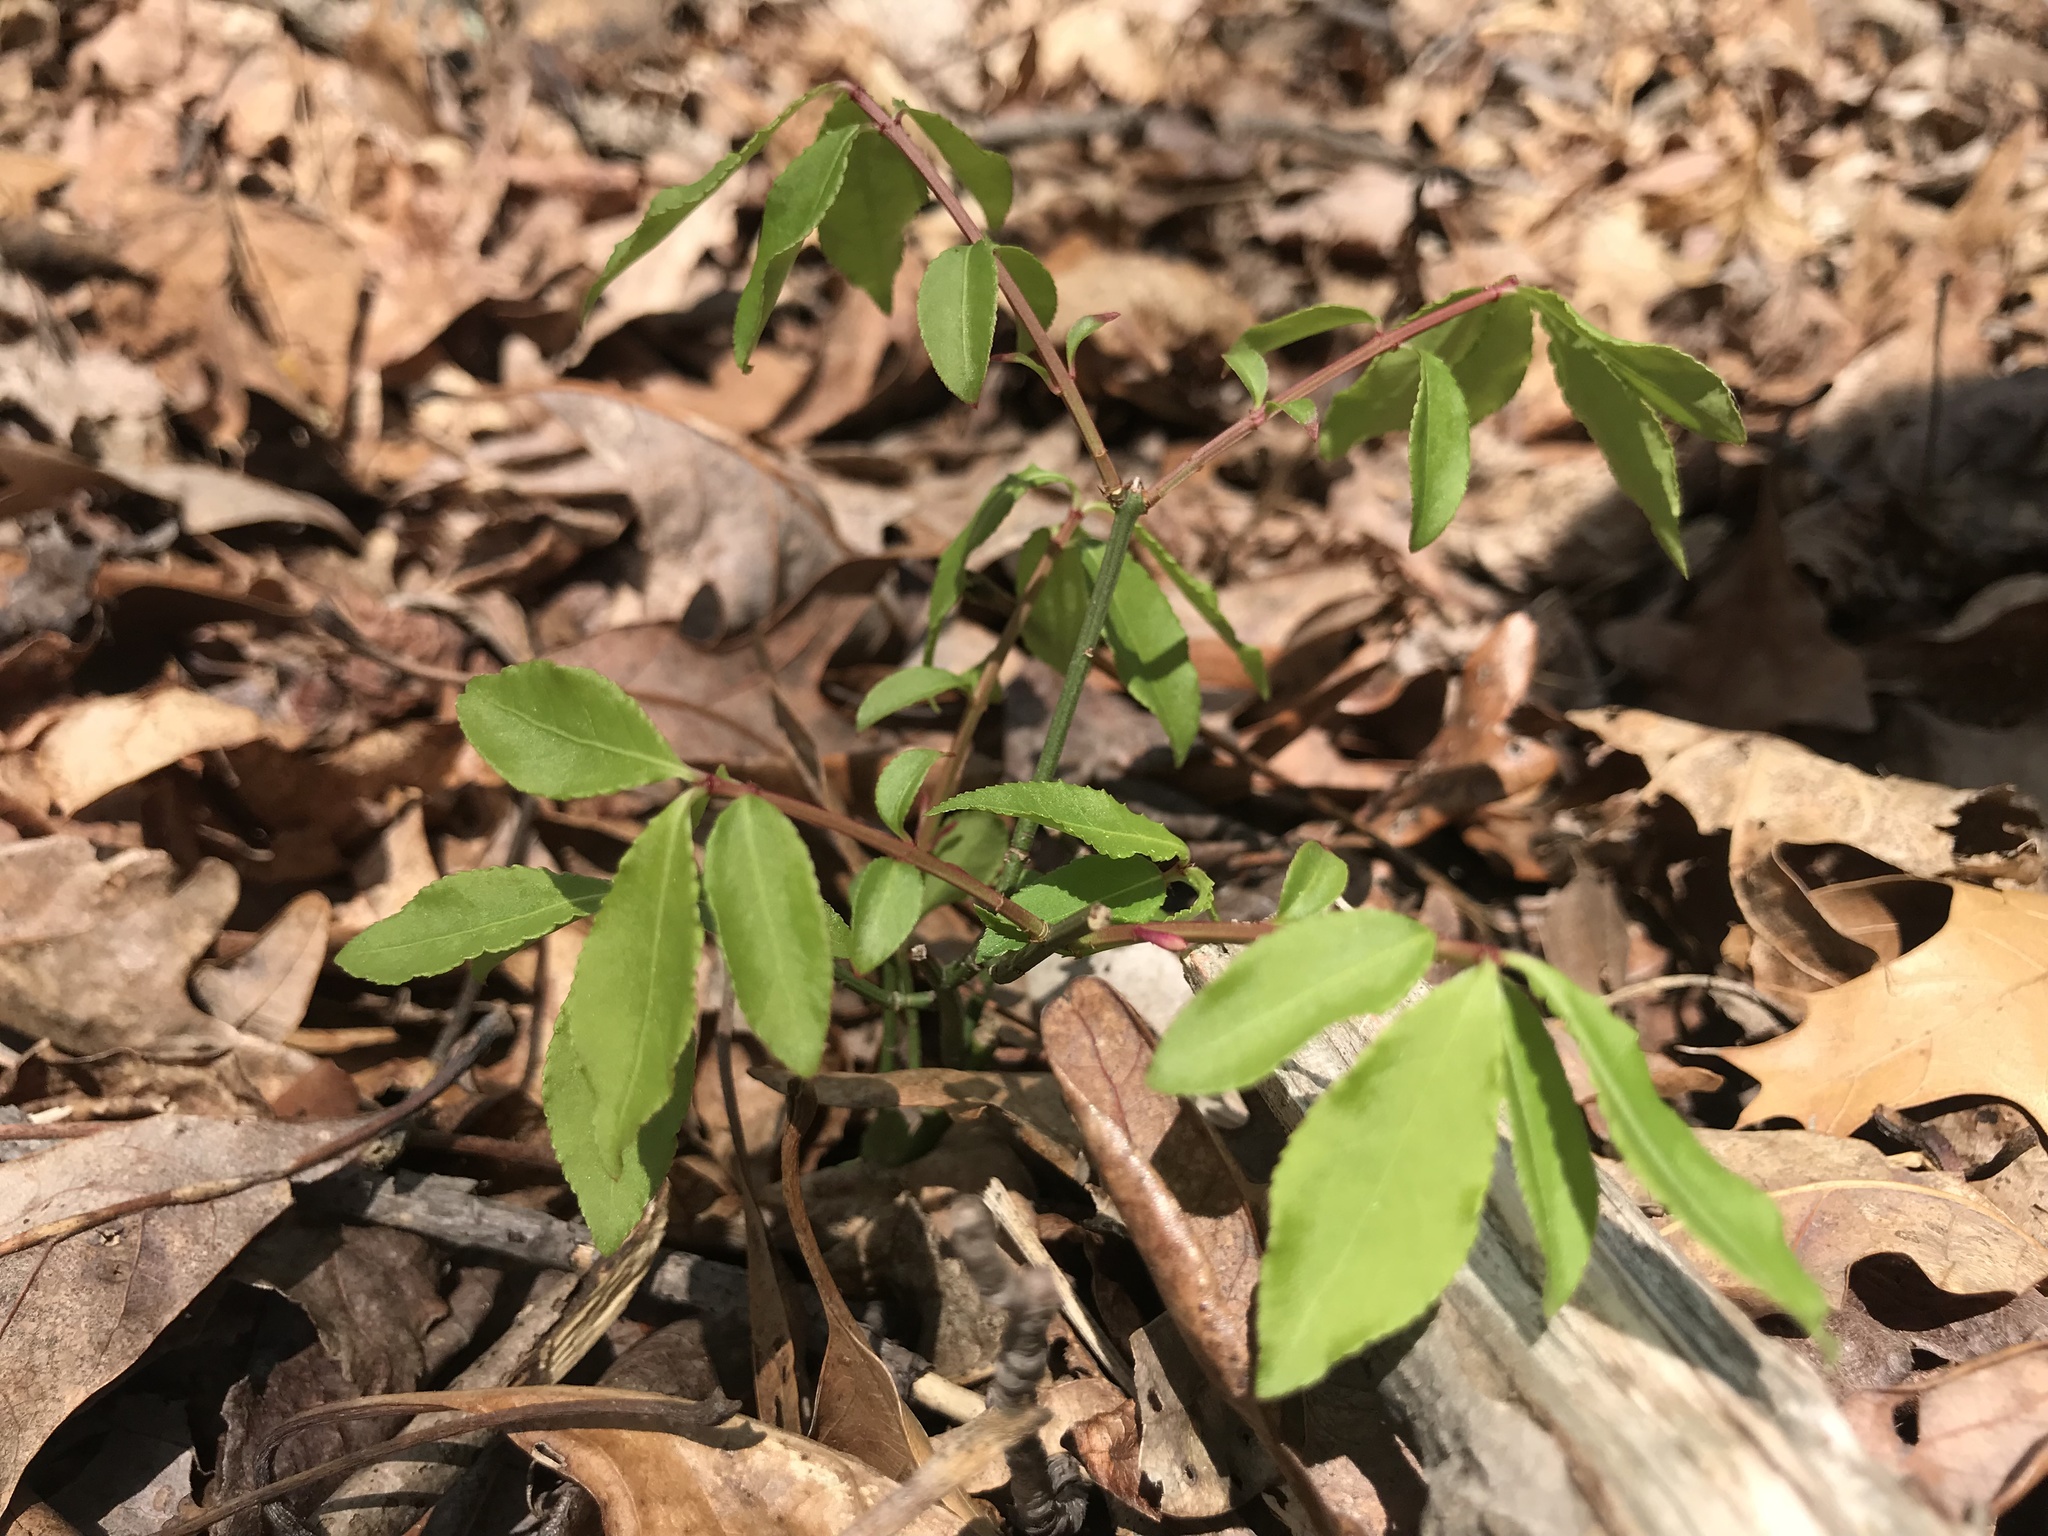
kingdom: Plantae
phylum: Tracheophyta
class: Magnoliopsida
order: Celastrales
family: Celastraceae
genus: Euonymus
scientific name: Euonymus alatus
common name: Winged euonymus
